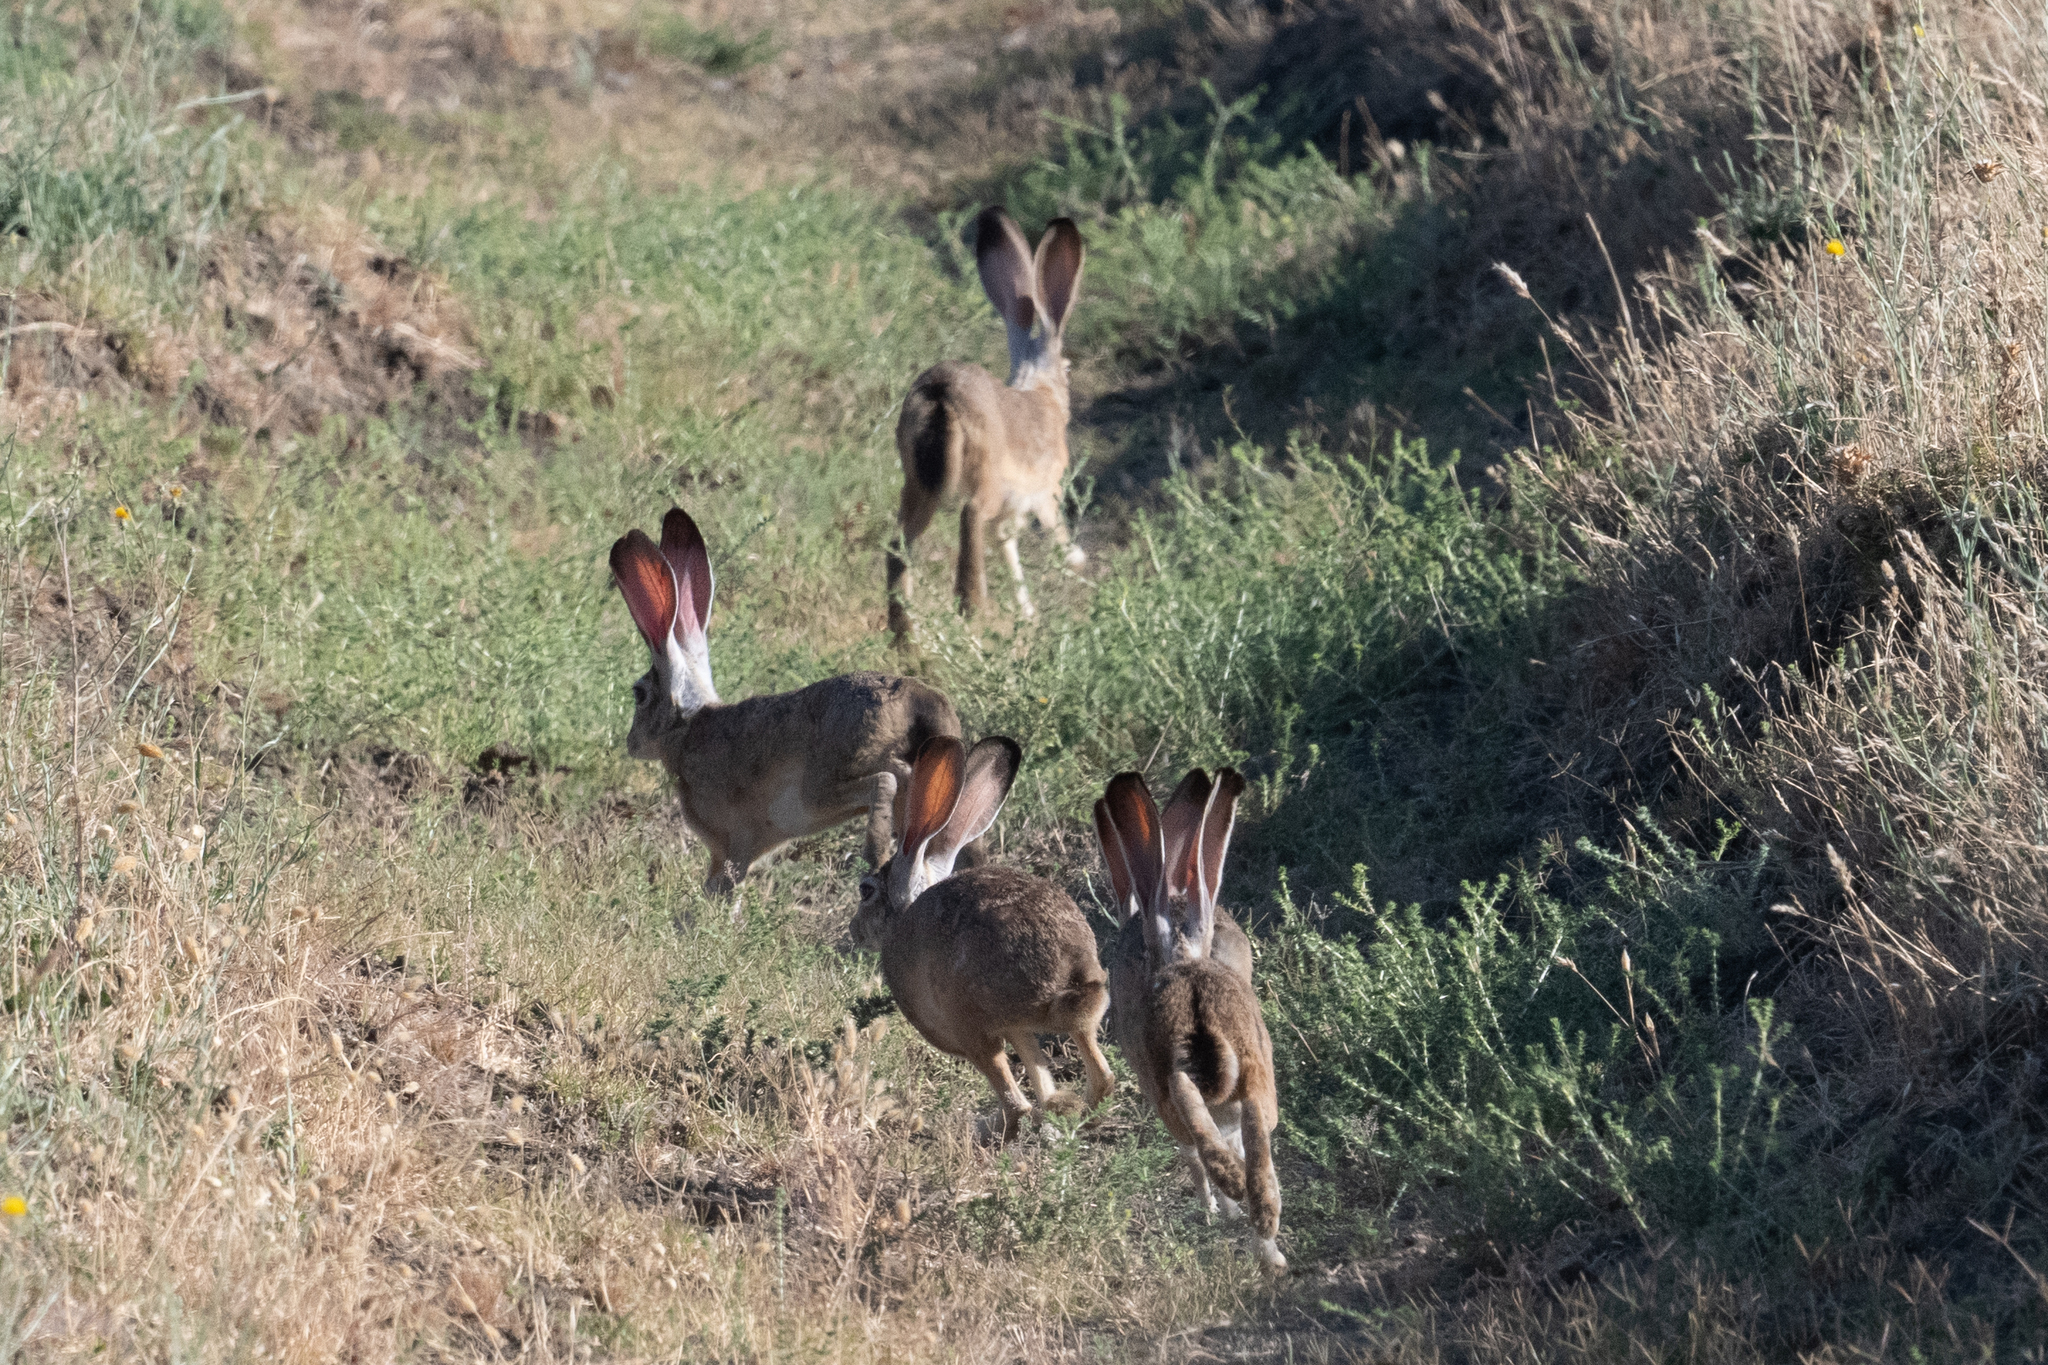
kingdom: Animalia
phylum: Chordata
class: Mammalia
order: Lagomorpha
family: Leporidae
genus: Lepus
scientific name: Lepus californicus
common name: Black-tailed jackrabbit
